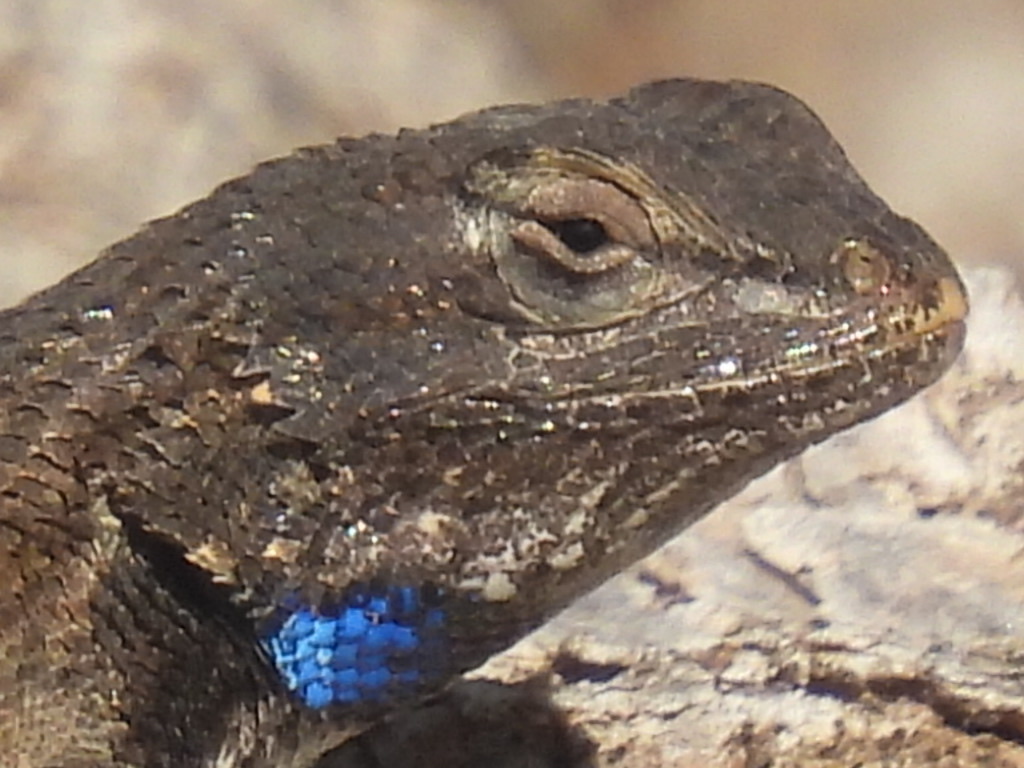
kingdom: Animalia
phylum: Chordata
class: Squamata
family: Phrynosomatidae
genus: Sceloporus
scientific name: Sceloporus cowlesi
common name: White sands prairie lizard
